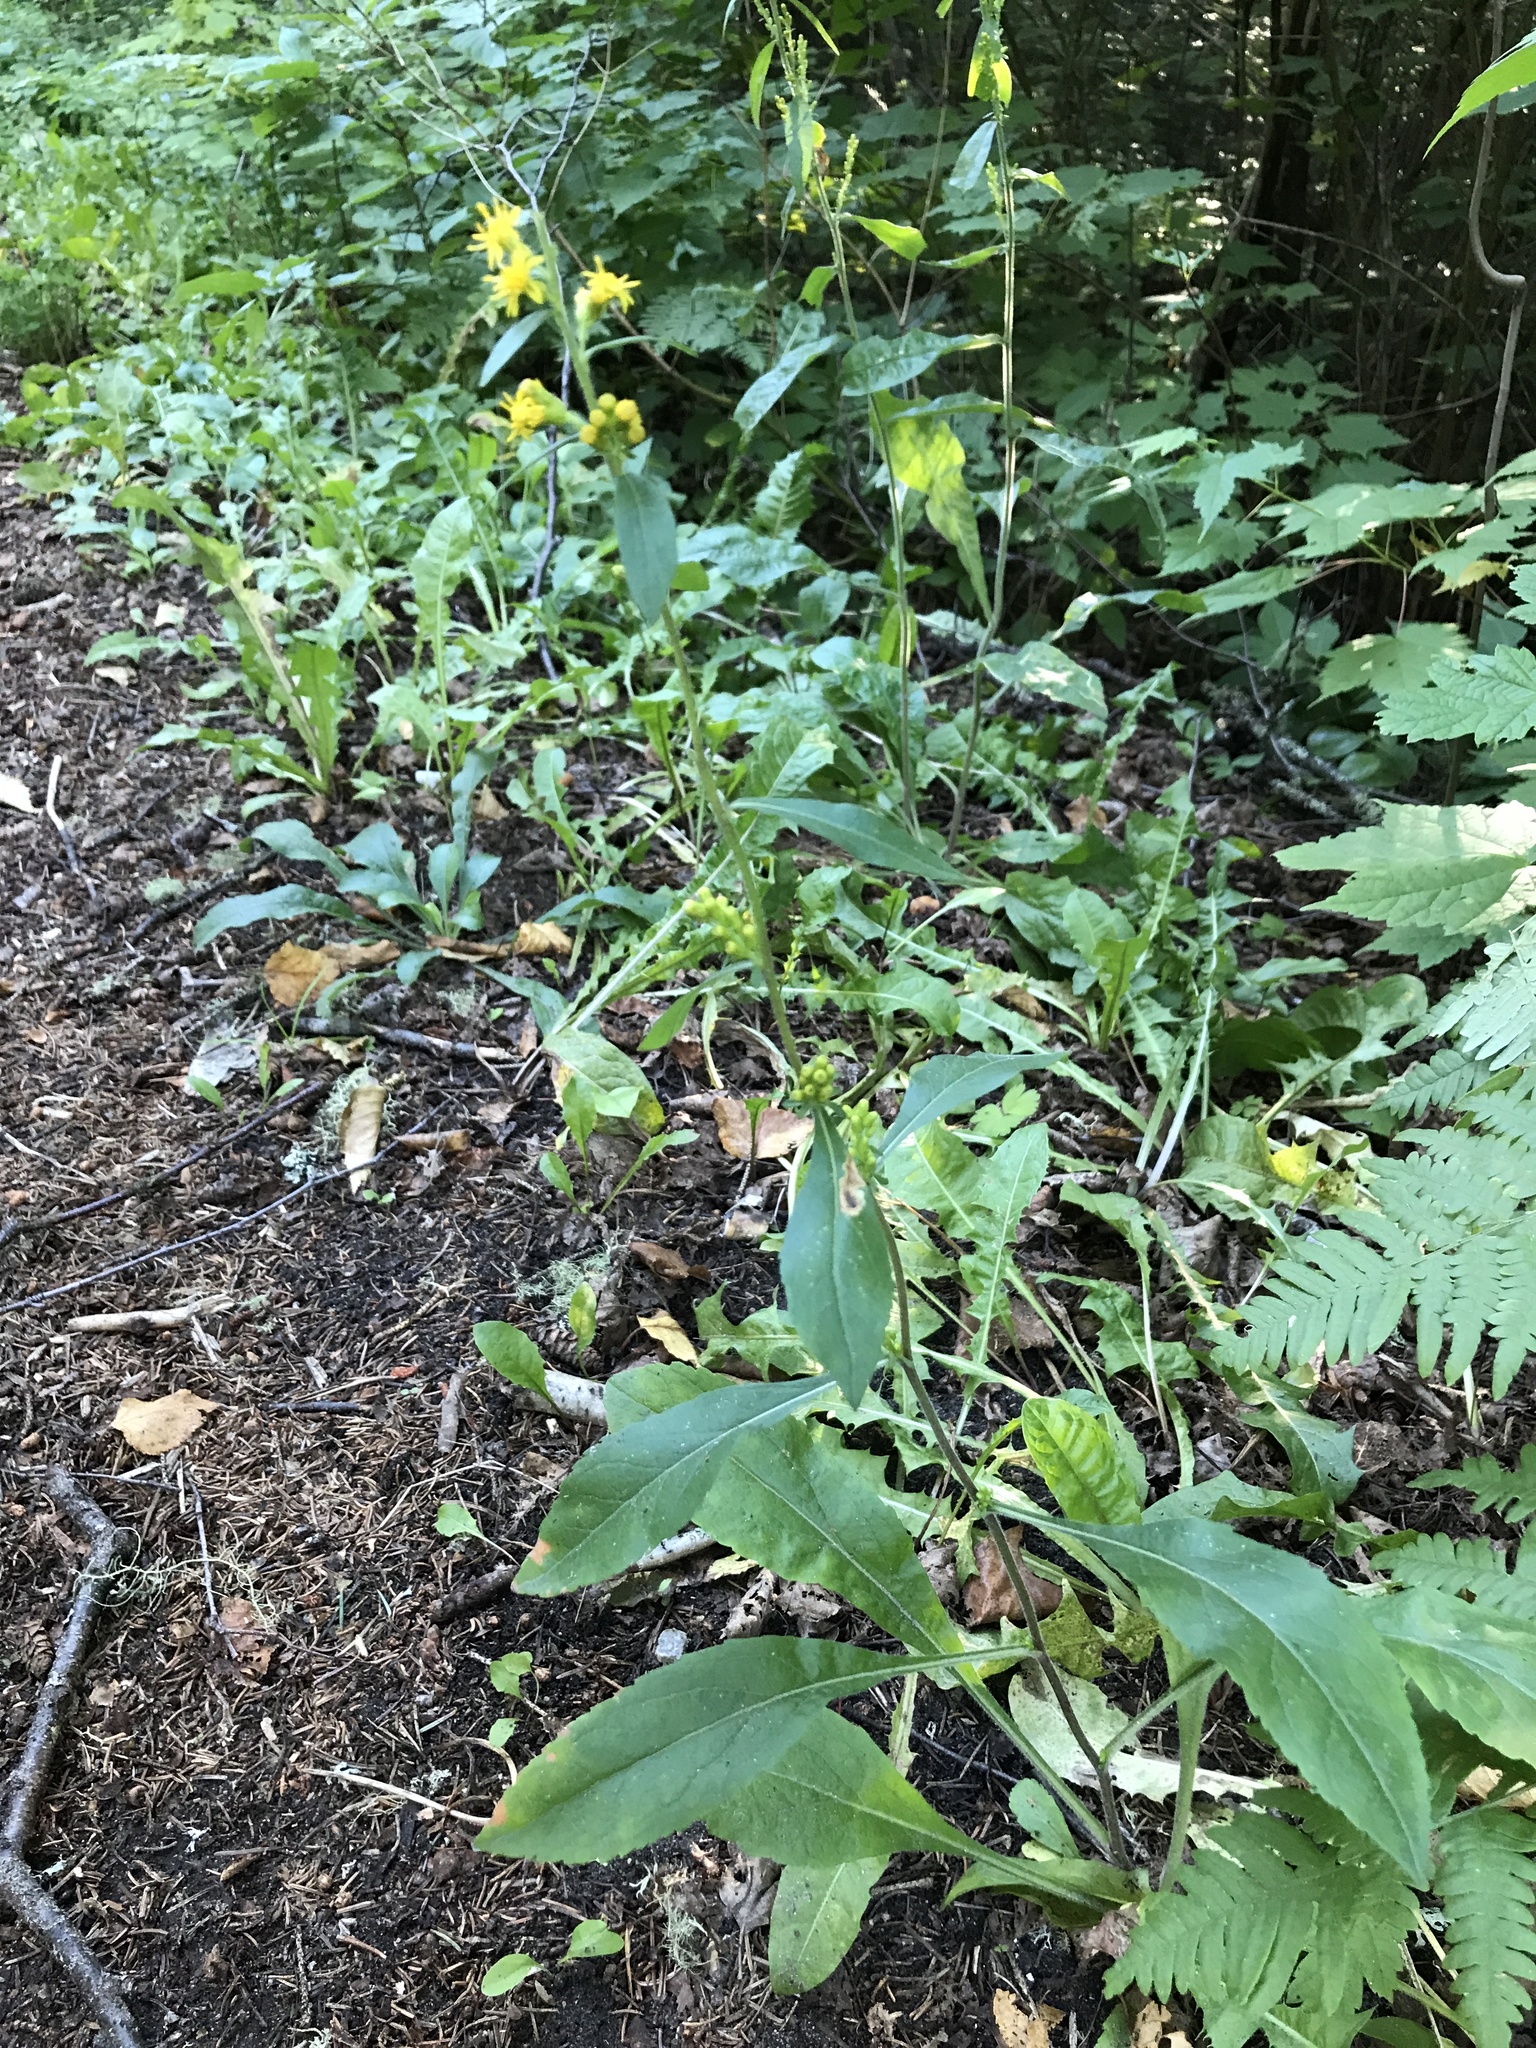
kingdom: Plantae
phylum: Tracheophyta
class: Magnoliopsida
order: Asterales
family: Asteraceae
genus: Solidago
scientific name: Solidago hispida
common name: Hairy goldenrod
